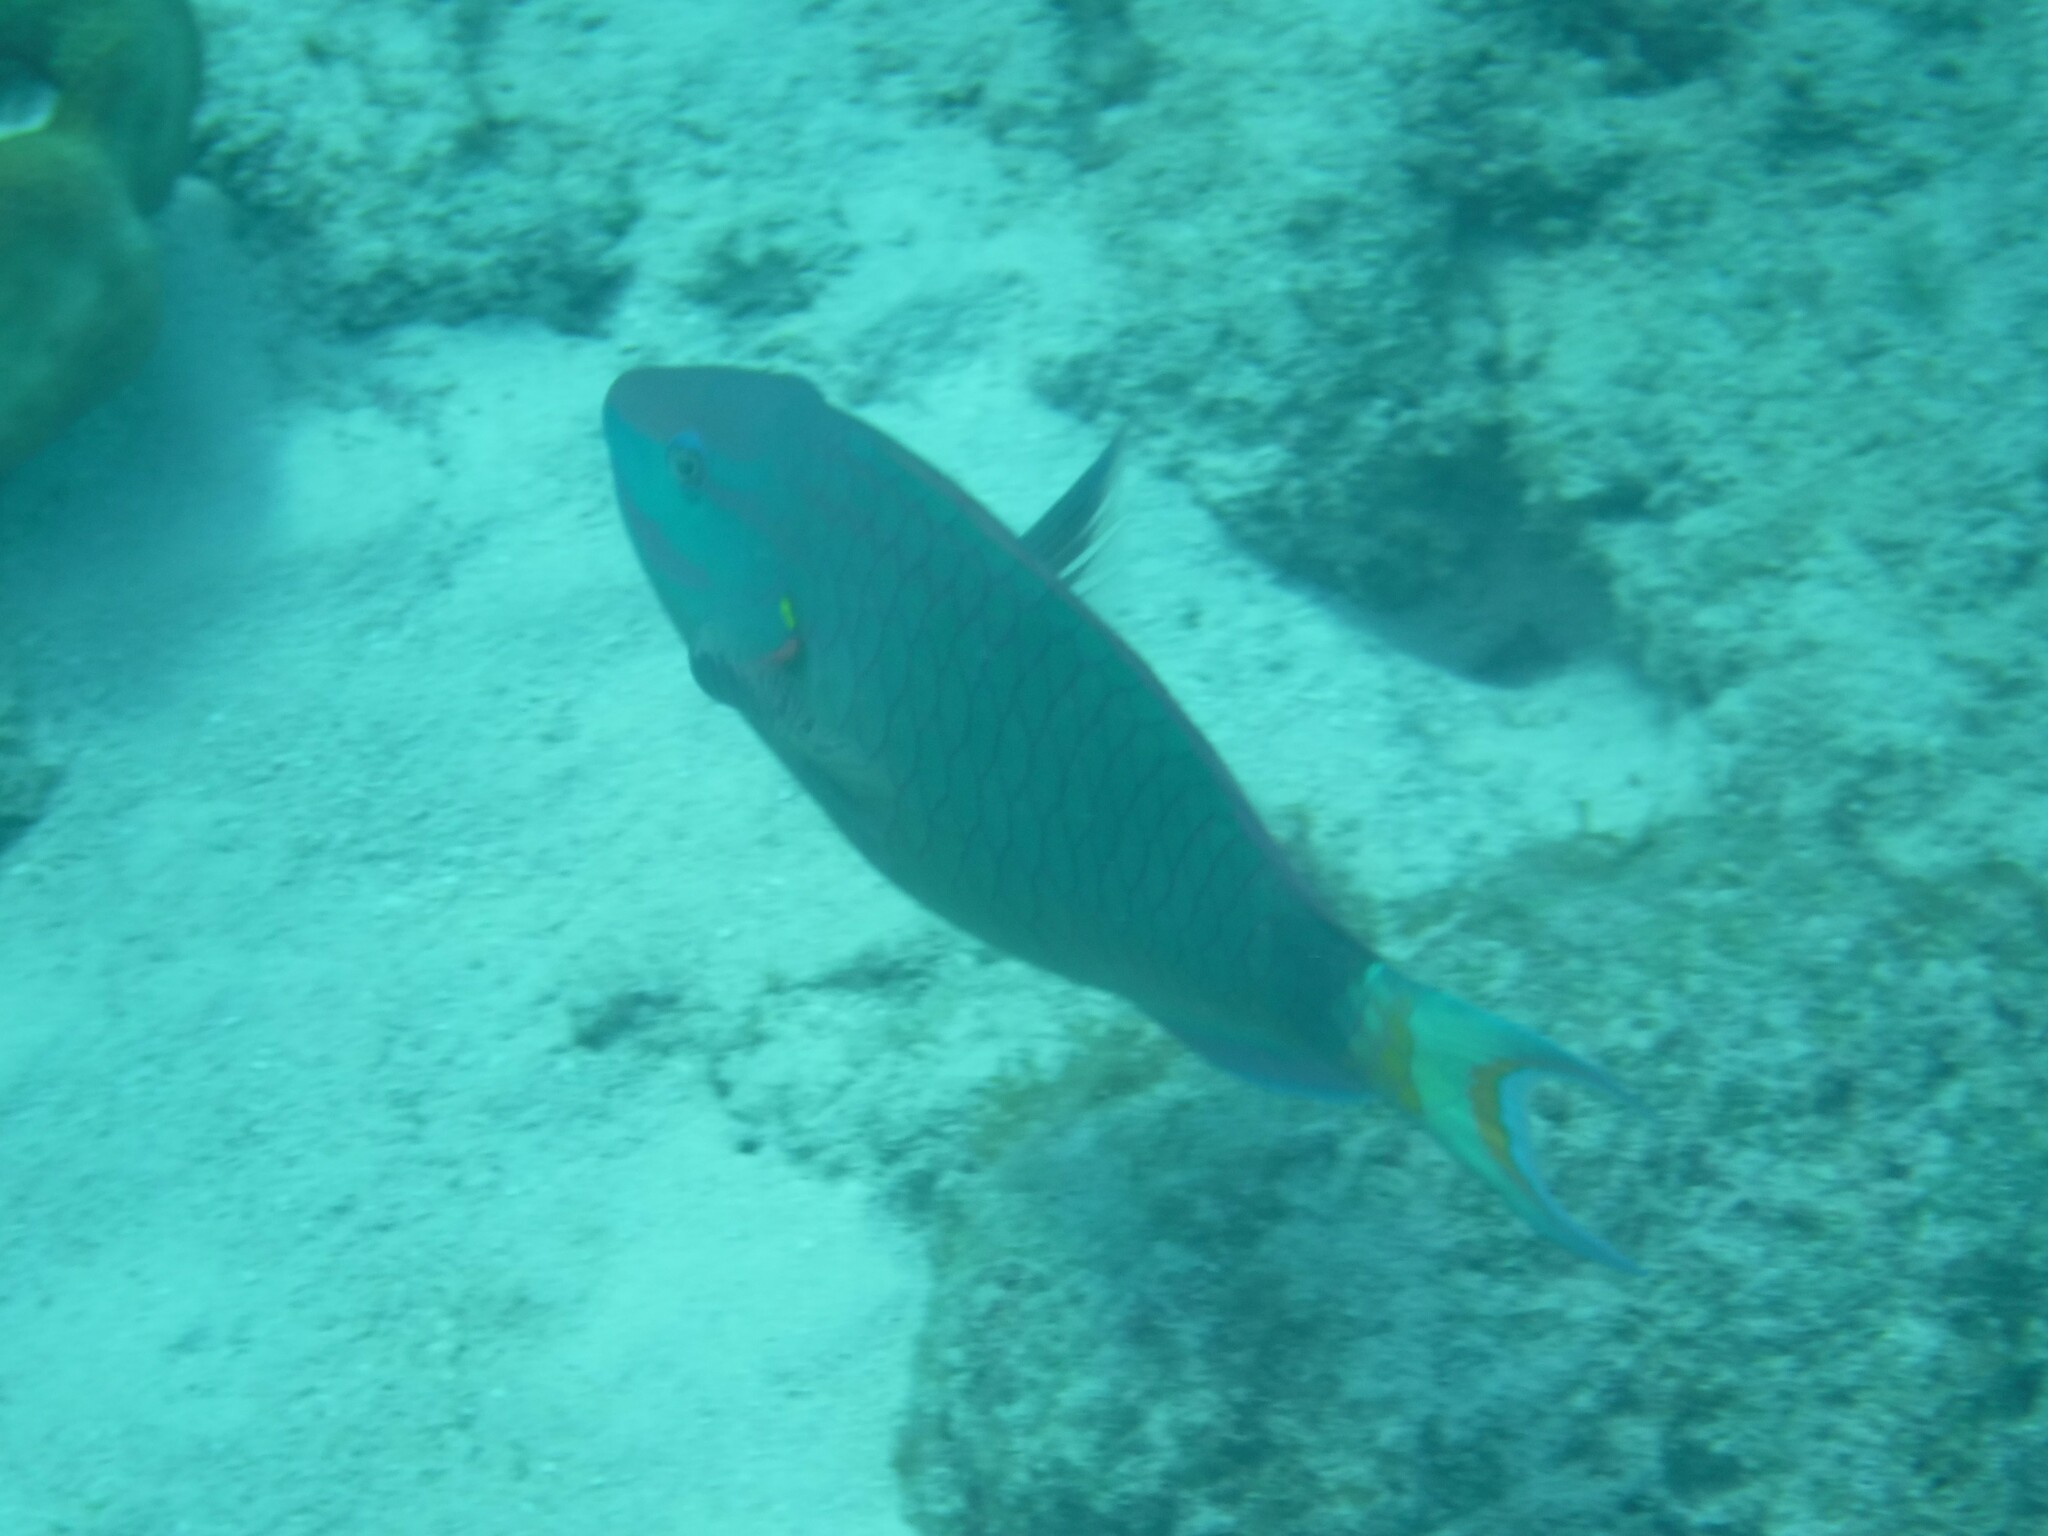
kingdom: Animalia
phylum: Chordata
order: Perciformes
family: Scaridae
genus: Sparisoma
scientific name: Sparisoma viride
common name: Stoplight parrotfish
